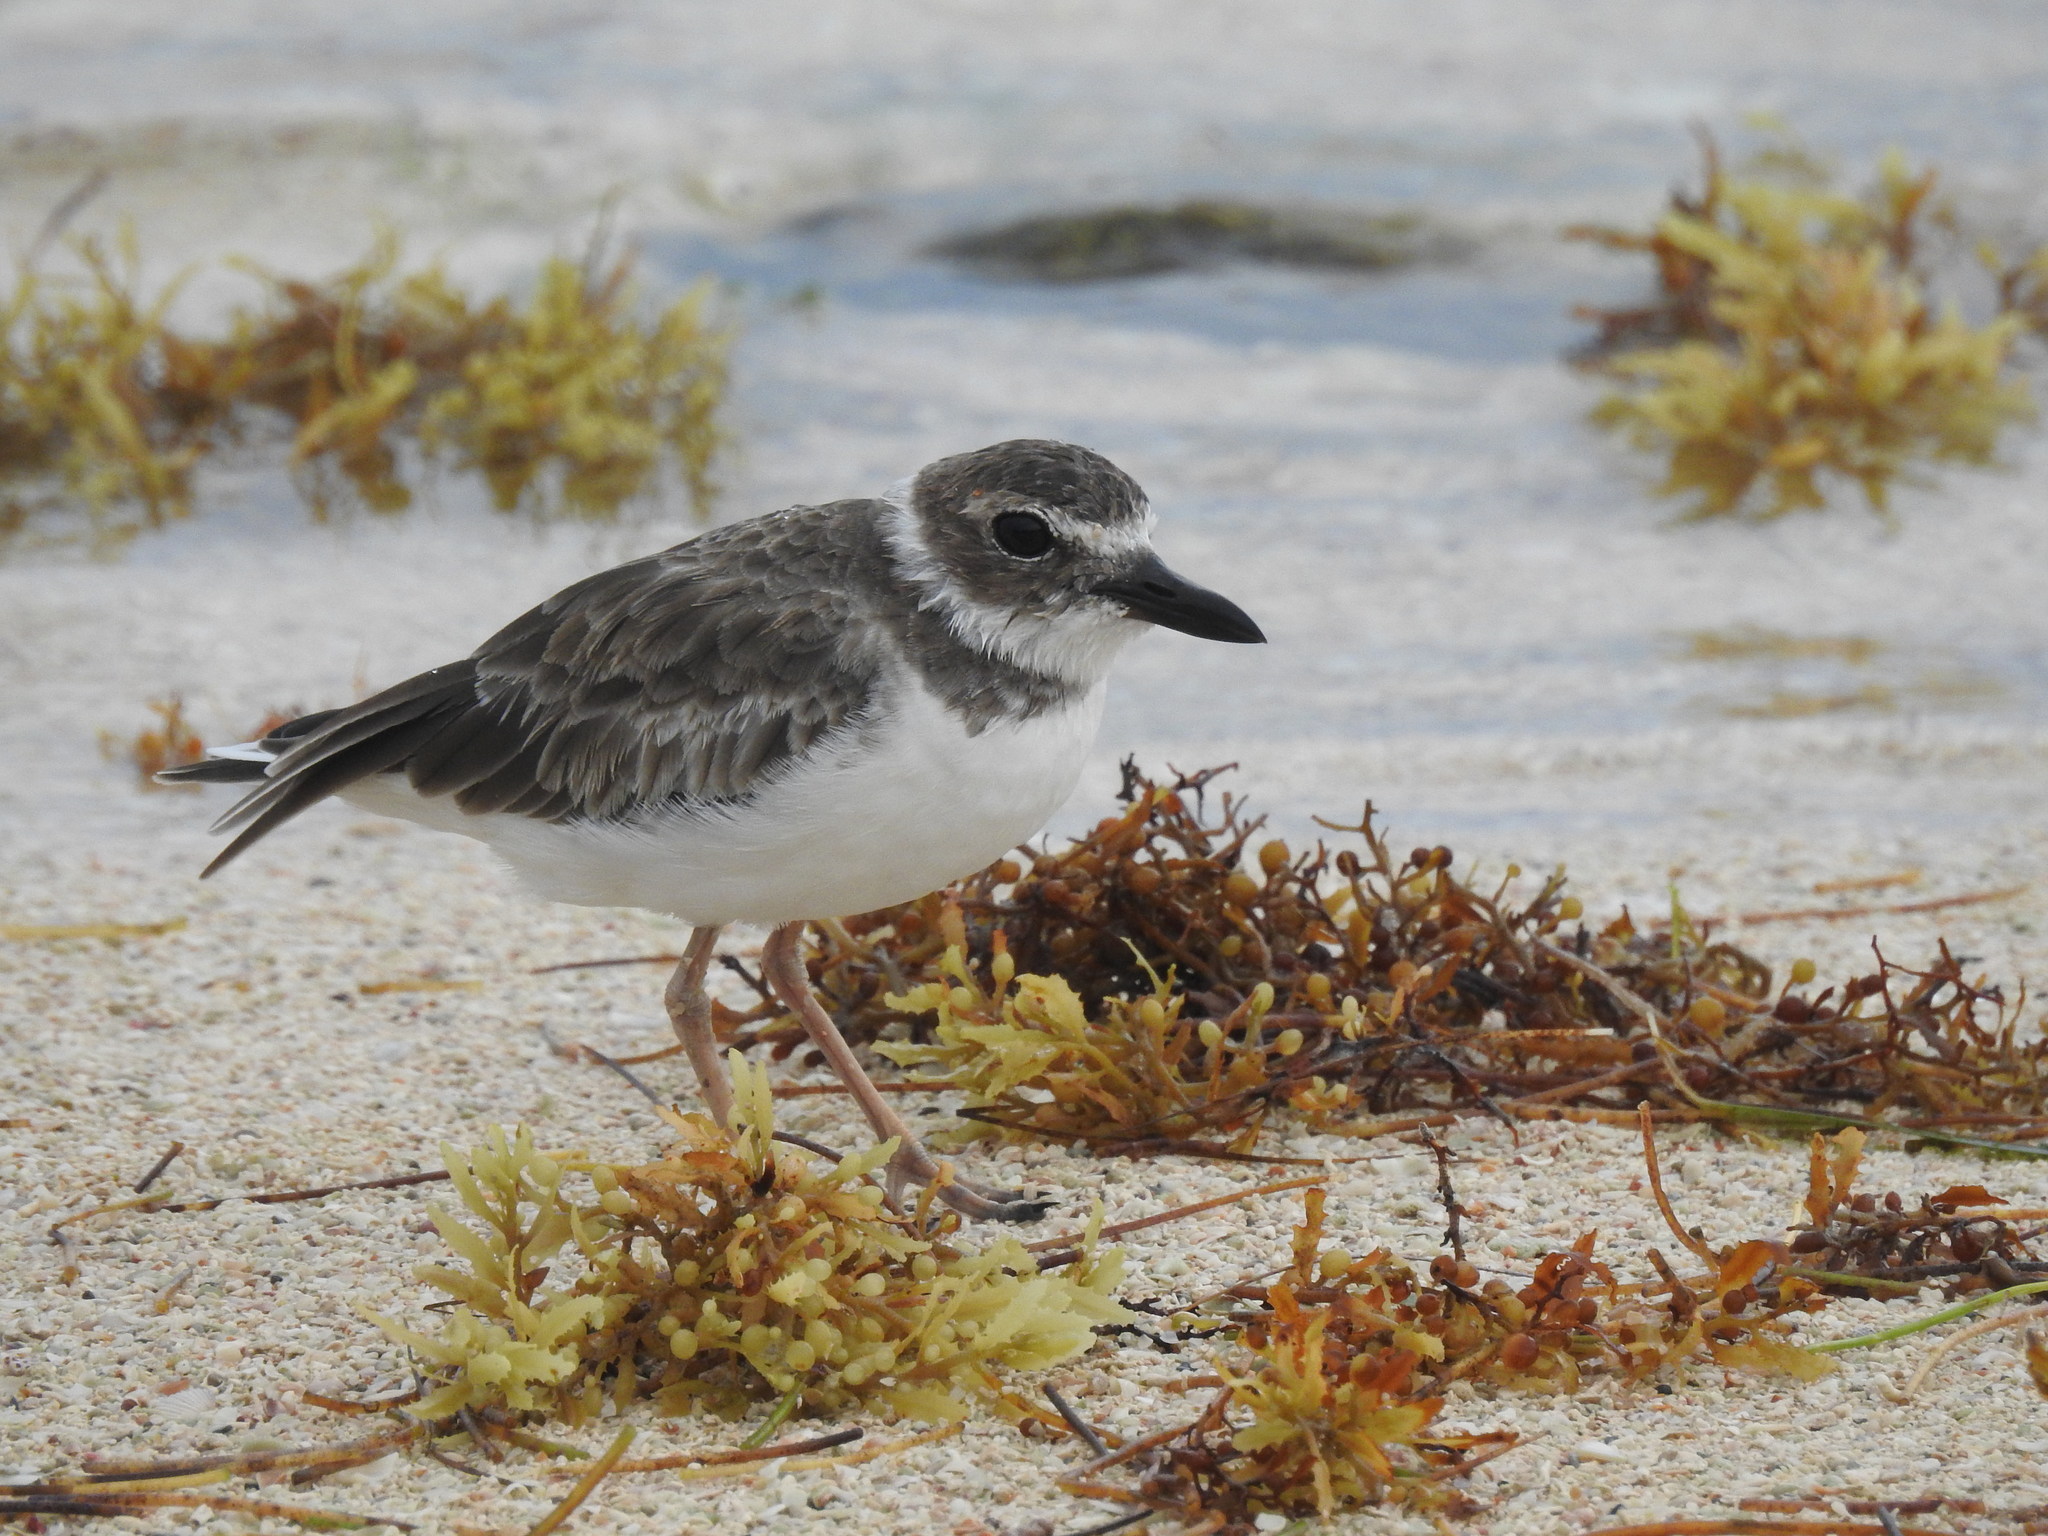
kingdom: Animalia
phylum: Chordata
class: Aves
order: Charadriiformes
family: Charadriidae
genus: Anarhynchus
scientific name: Anarhynchus
